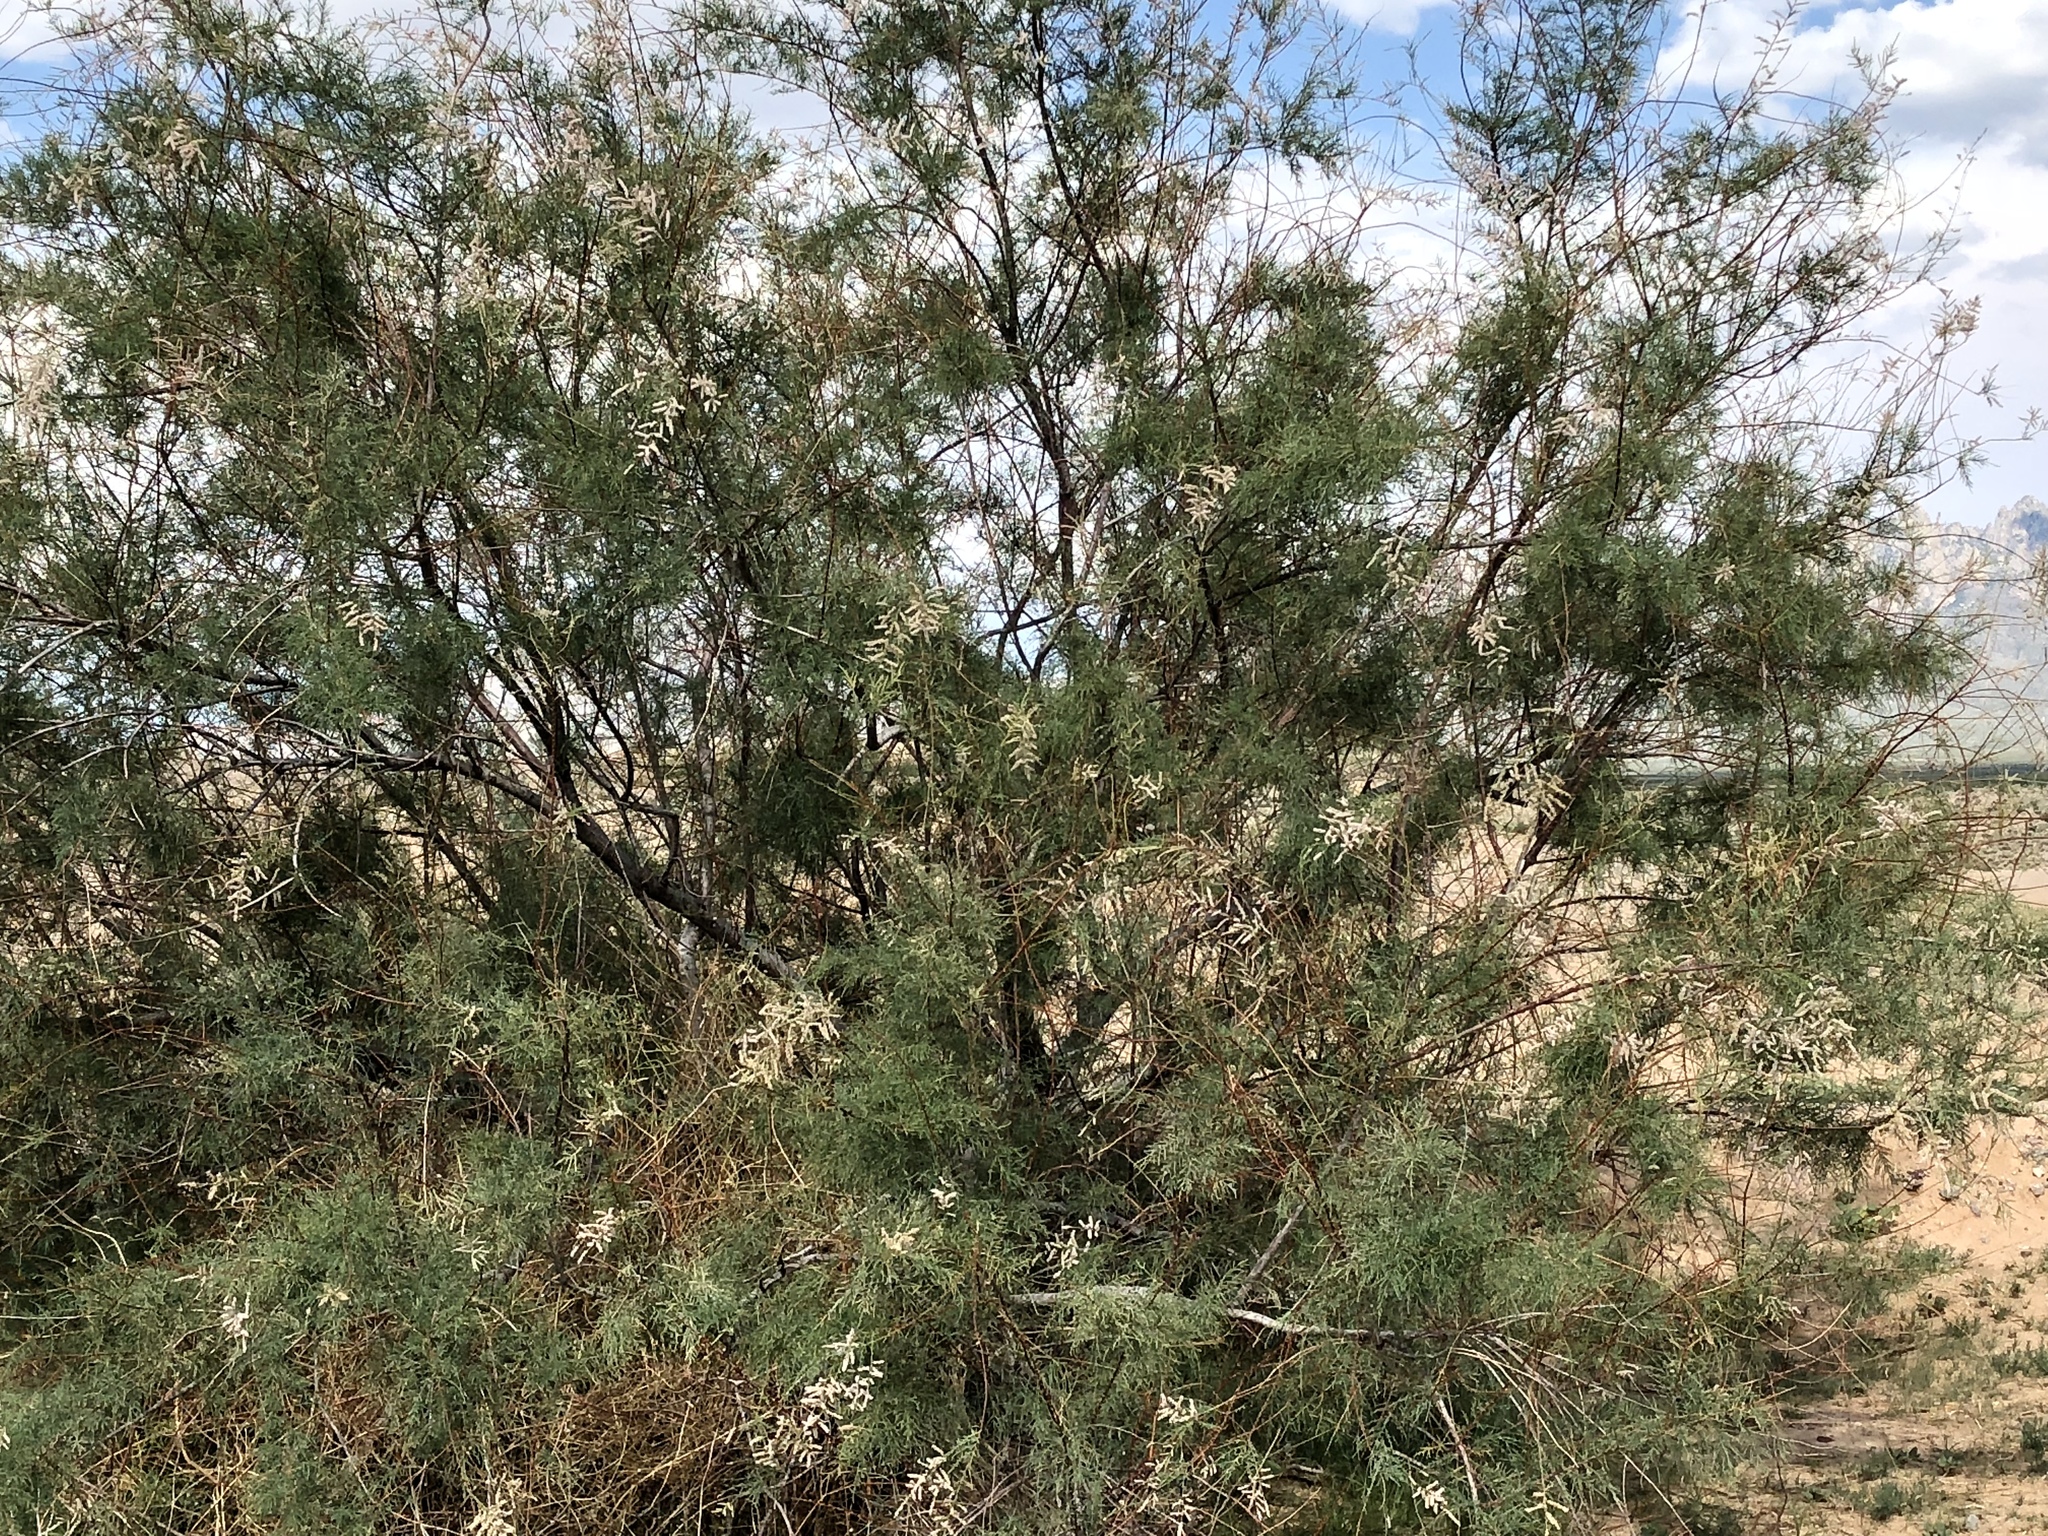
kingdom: Plantae
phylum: Tracheophyta
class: Magnoliopsida
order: Lamiales
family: Bignoniaceae
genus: Chilopsis
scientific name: Chilopsis linearis
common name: Desert-willow
